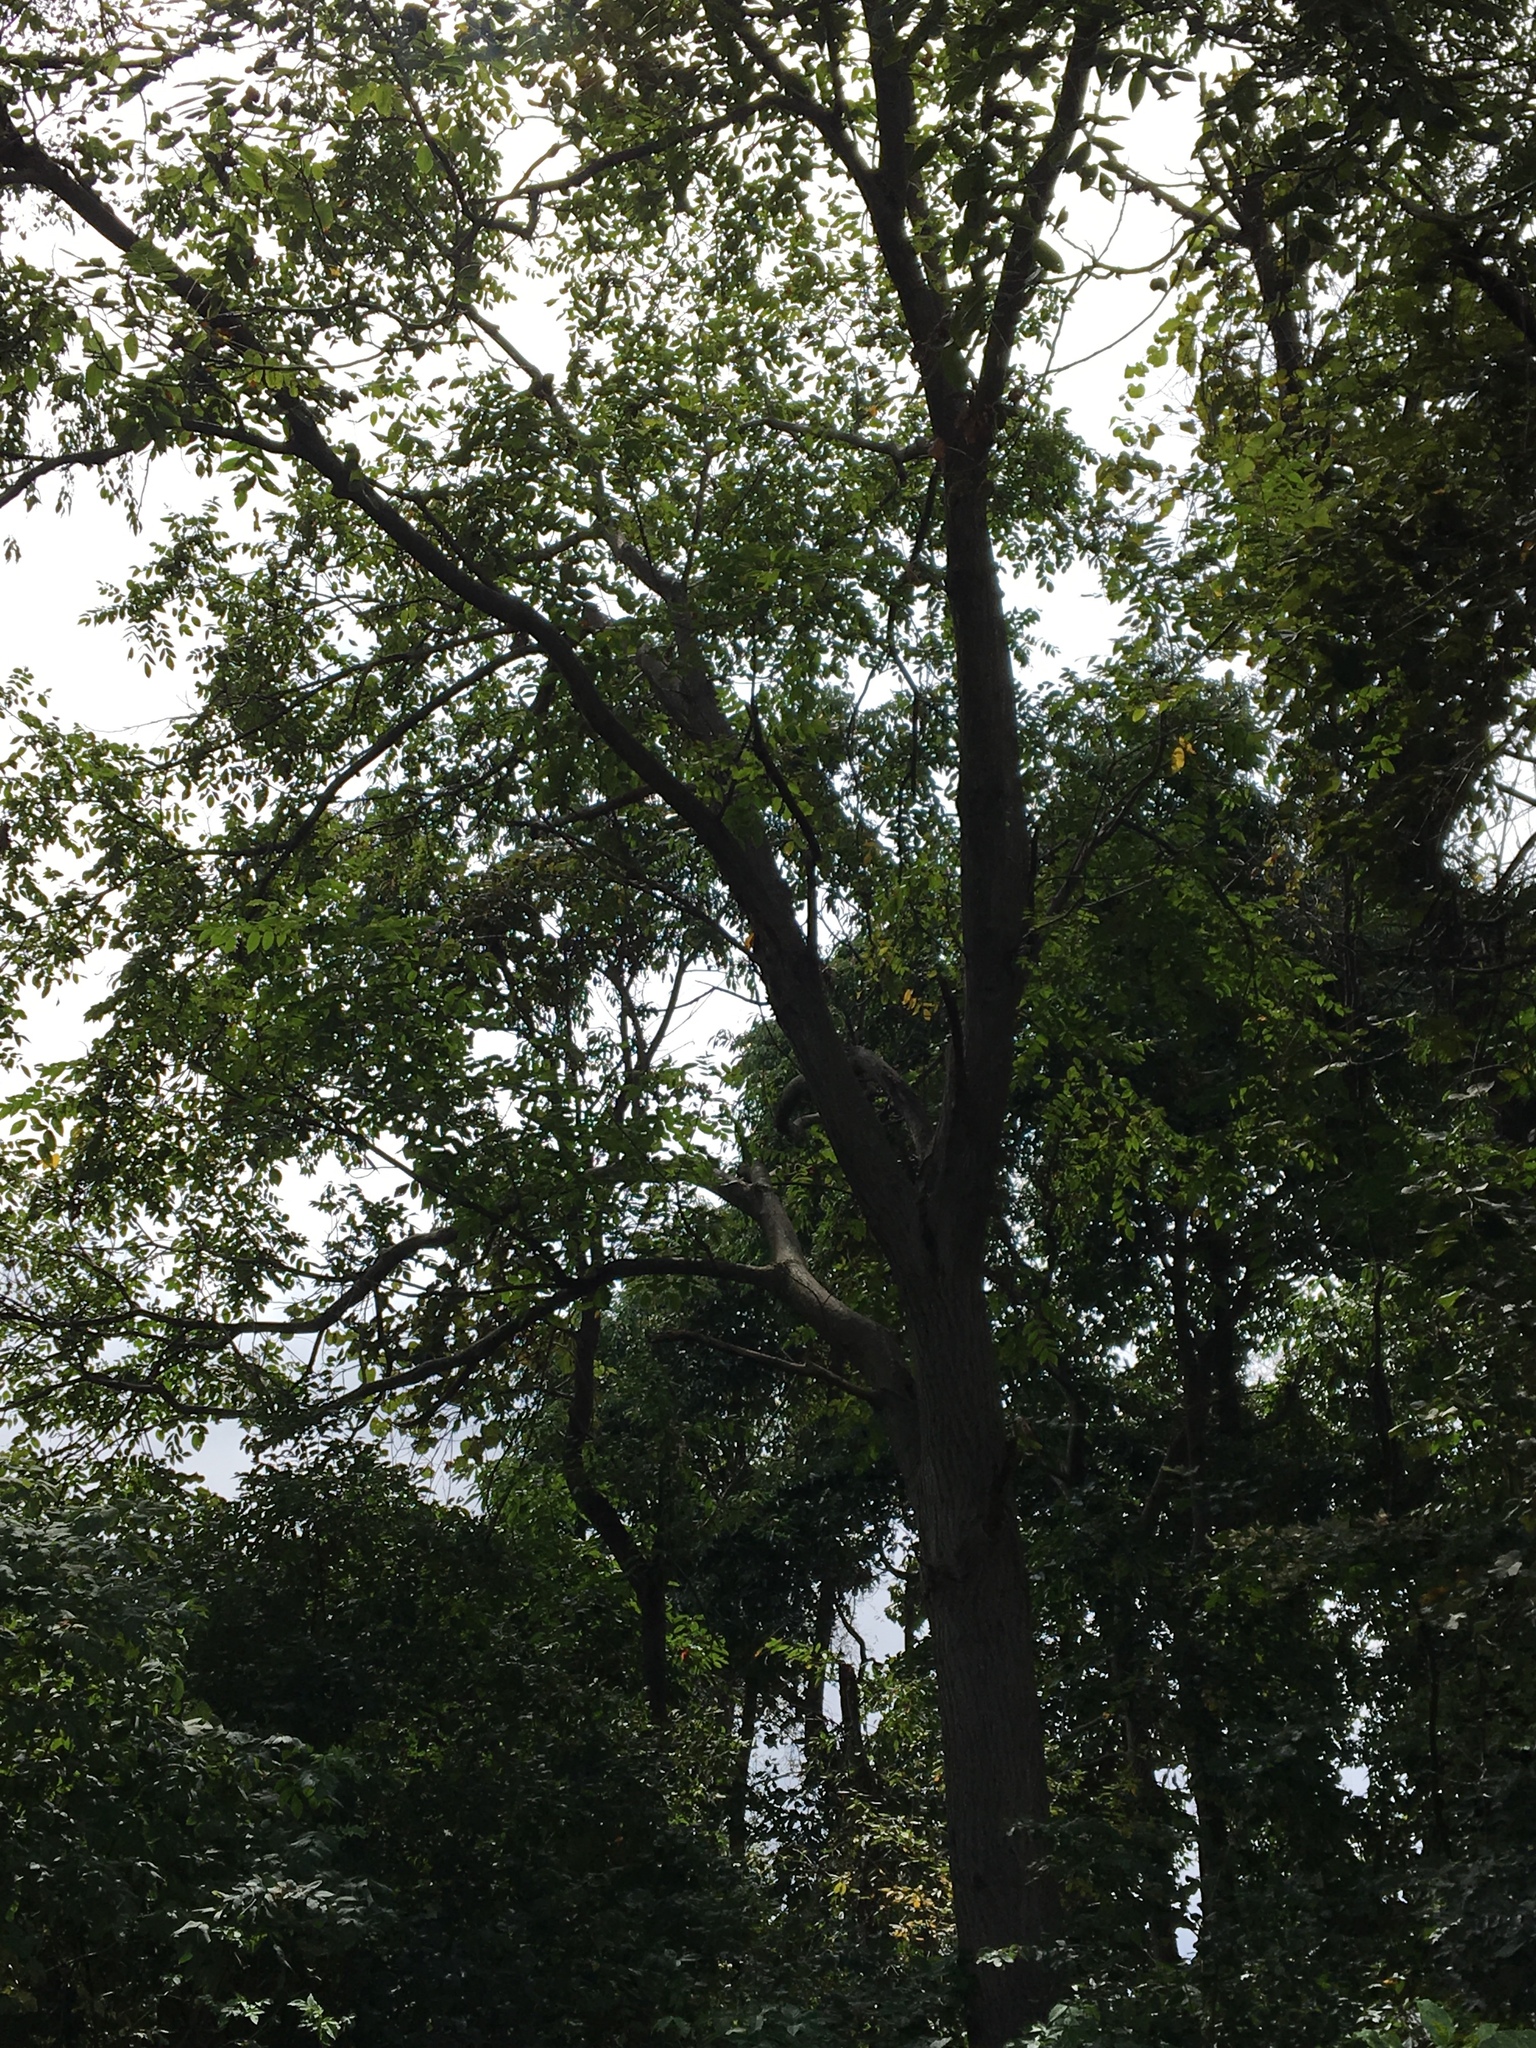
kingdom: Plantae
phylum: Tracheophyta
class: Magnoliopsida
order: Fagales
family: Juglandaceae
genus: Juglans
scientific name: Juglans cinerea
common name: Butternut
